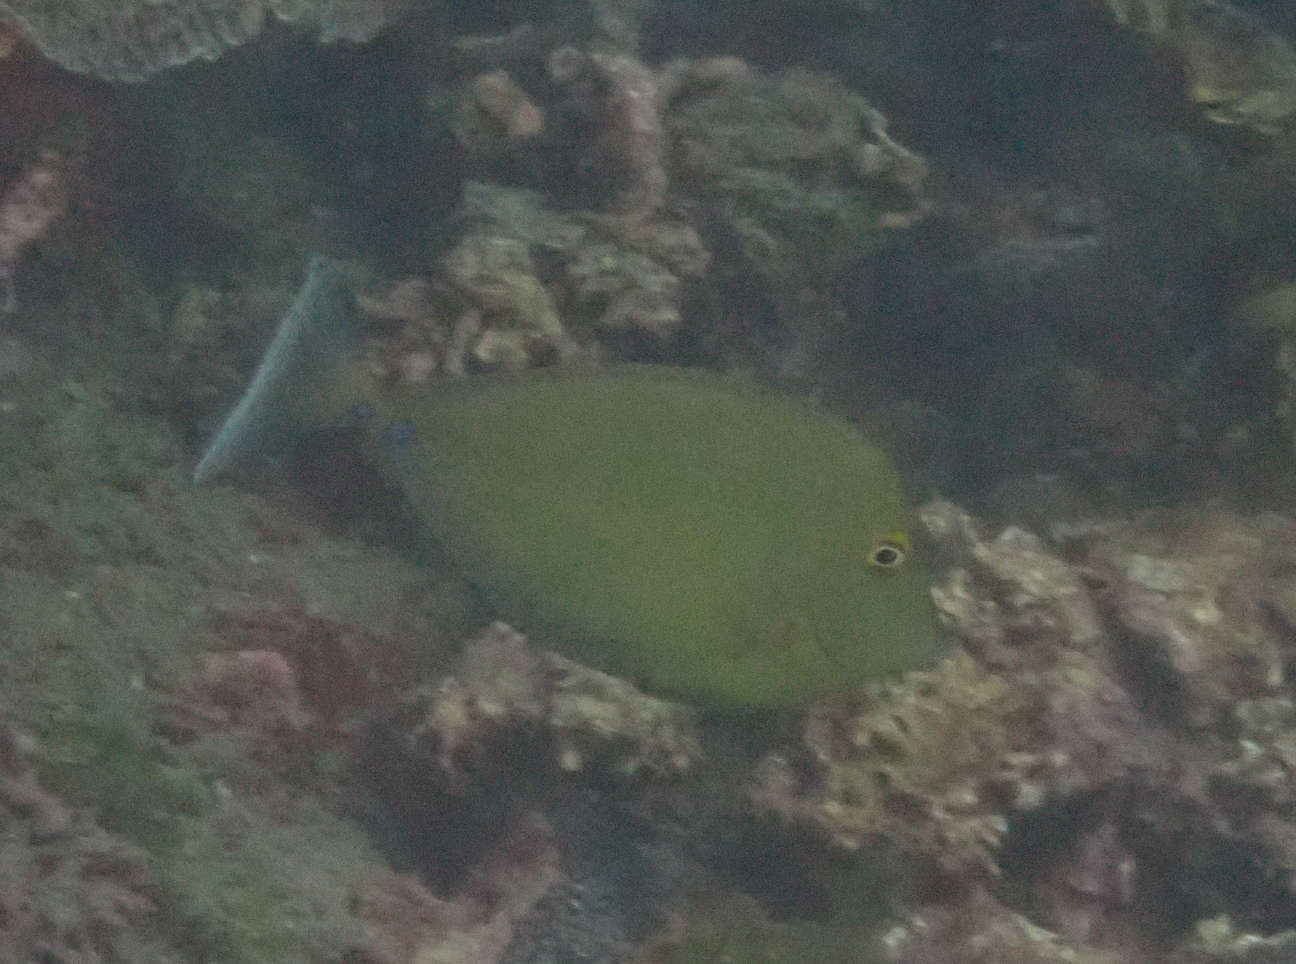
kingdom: Animalia
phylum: Chordata
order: Perciformes
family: Acanthuridae
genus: Naso
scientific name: Naso unicornis
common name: Bluespine unicornfish
